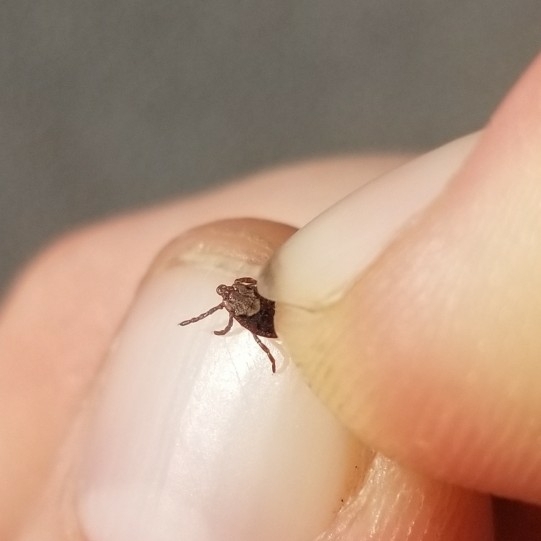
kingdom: Animalia
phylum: Arthropoda
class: Arachnida
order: Ixodida
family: Ixodidae
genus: Dermacentor
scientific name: Dermacentor occidentalis
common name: Net tick
